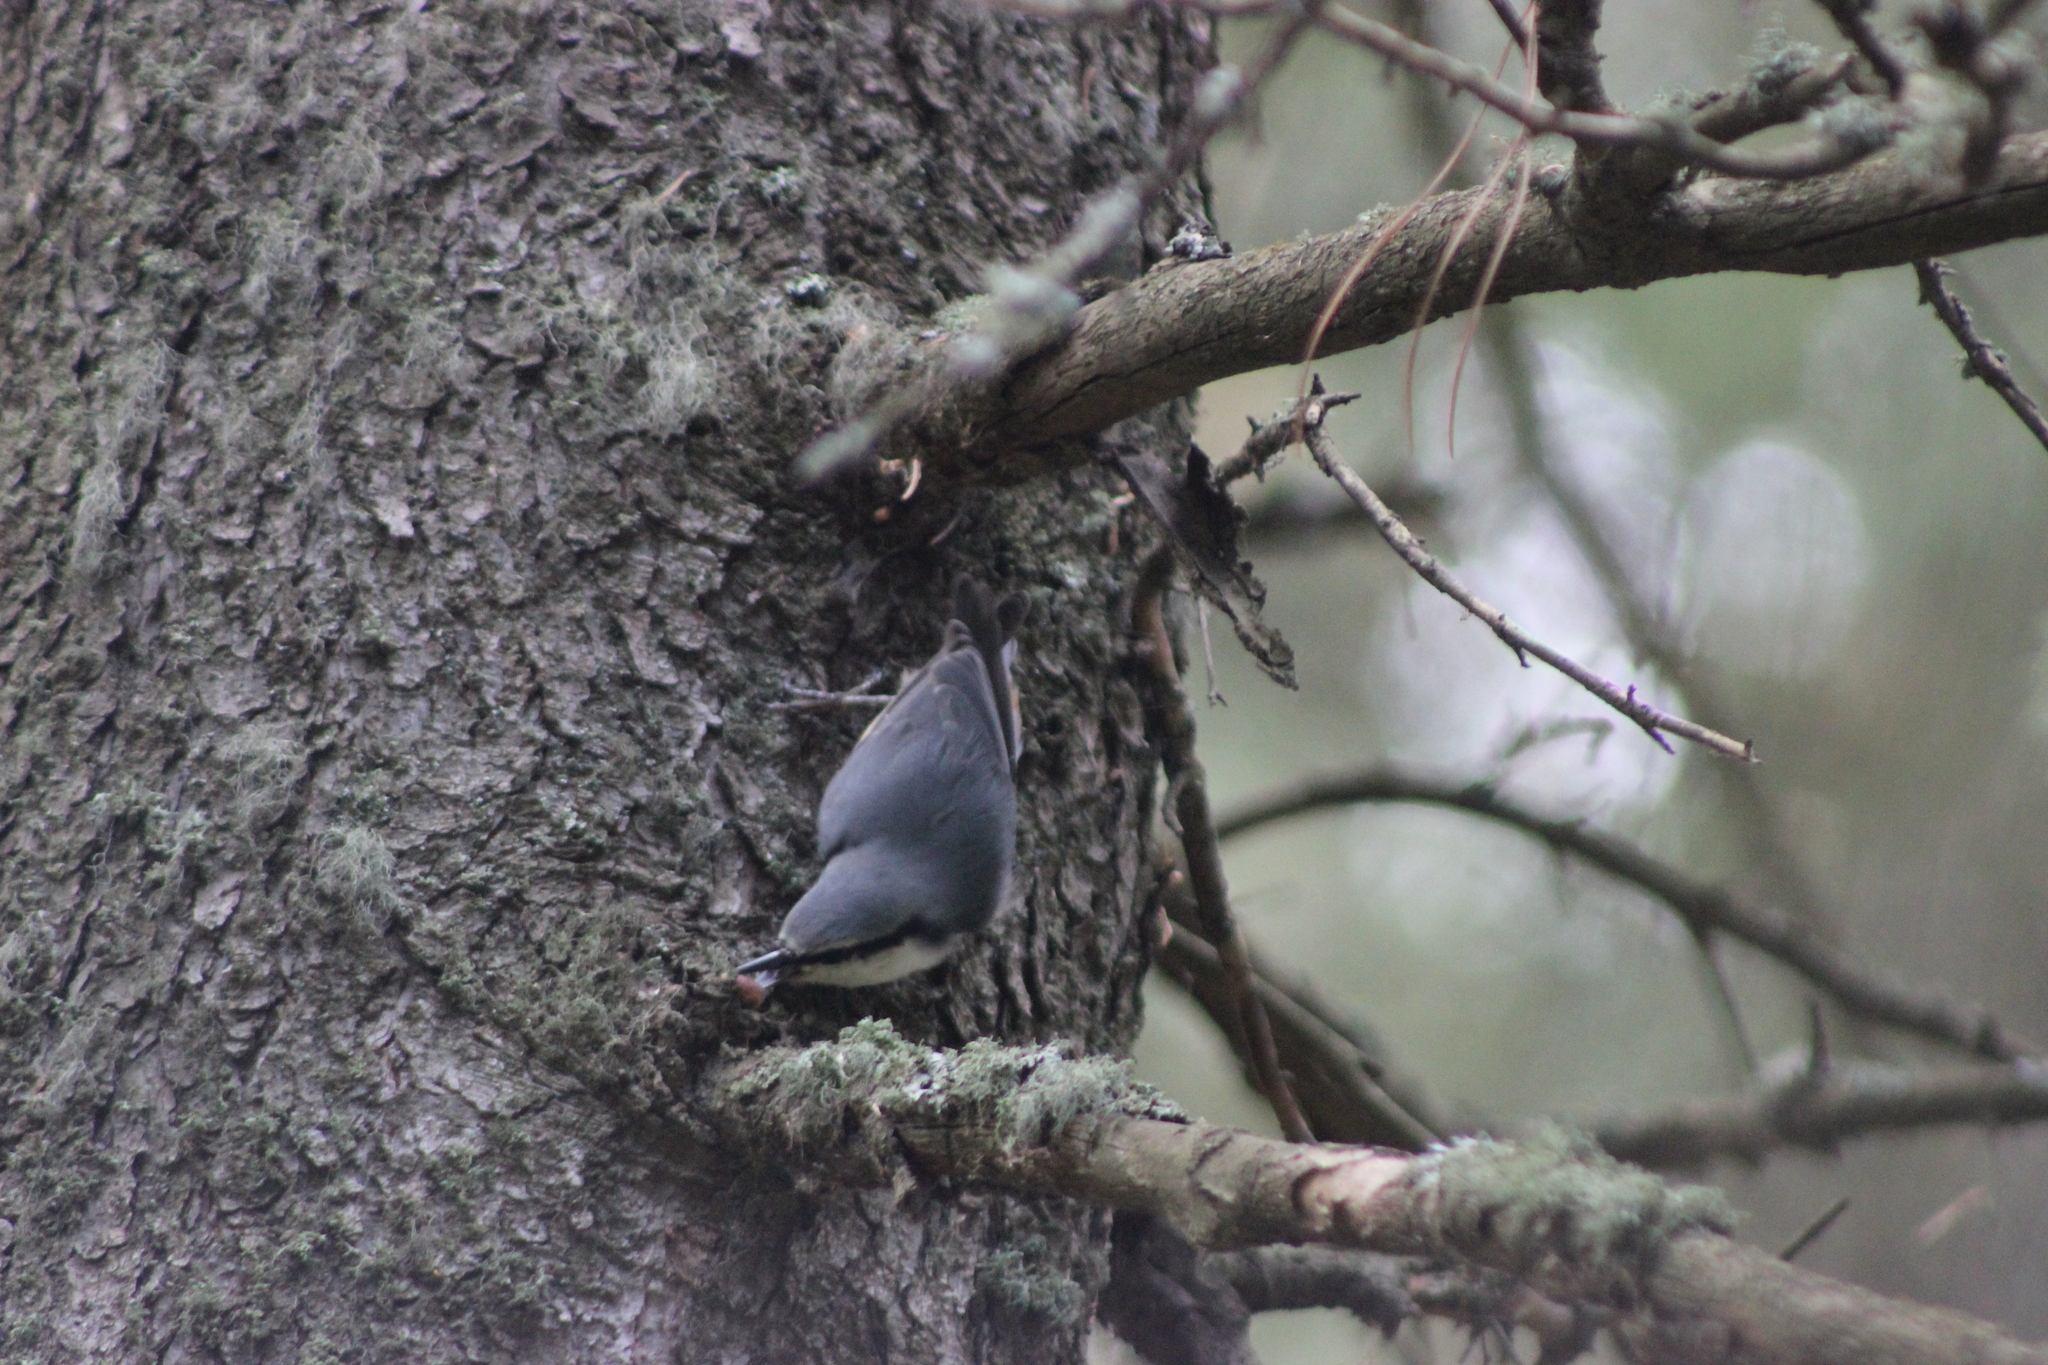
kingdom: Animalia
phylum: Chordata
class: Aves
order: Passeriformes
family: Sittidae
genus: Sitta
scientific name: Sitta europaea
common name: Eurasian nuthatch
